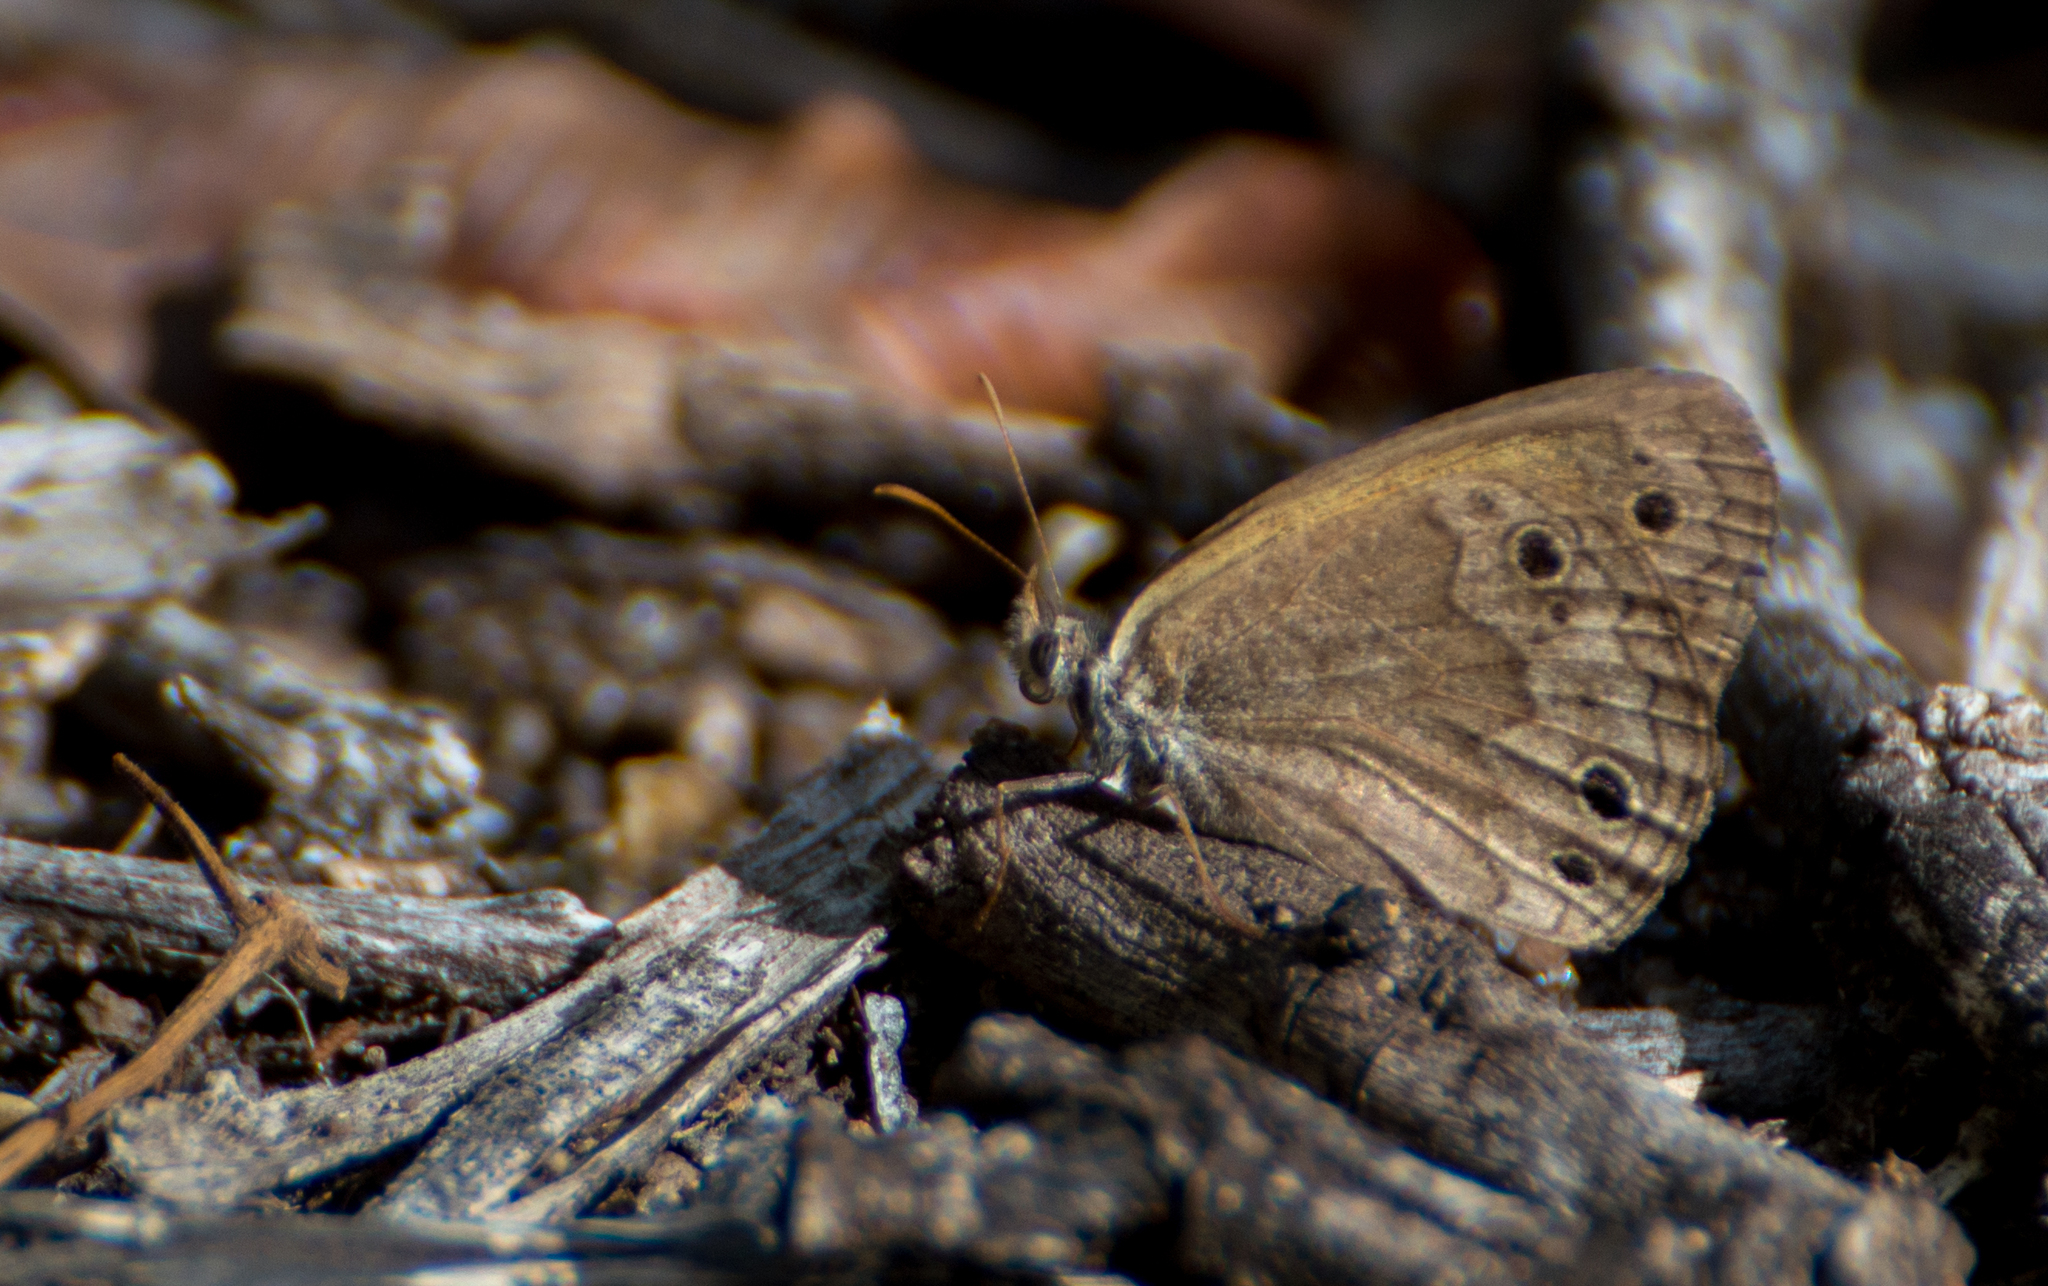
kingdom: Animalia
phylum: Arthropoda
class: Insecta
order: Lepidoptera
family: Nymphalidae
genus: Pharneuptychia
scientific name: Pharneuptychia phares
